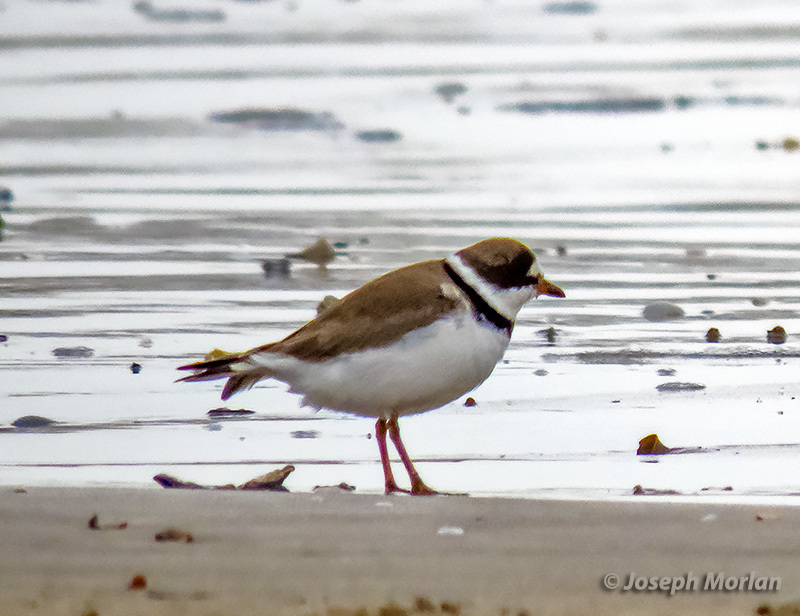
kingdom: Animalia
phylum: Chordata
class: Aves
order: Charadriiformes
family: Charadriidae
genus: Charadrius
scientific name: Charadrius semipalmatus
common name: Semipalmated plover
